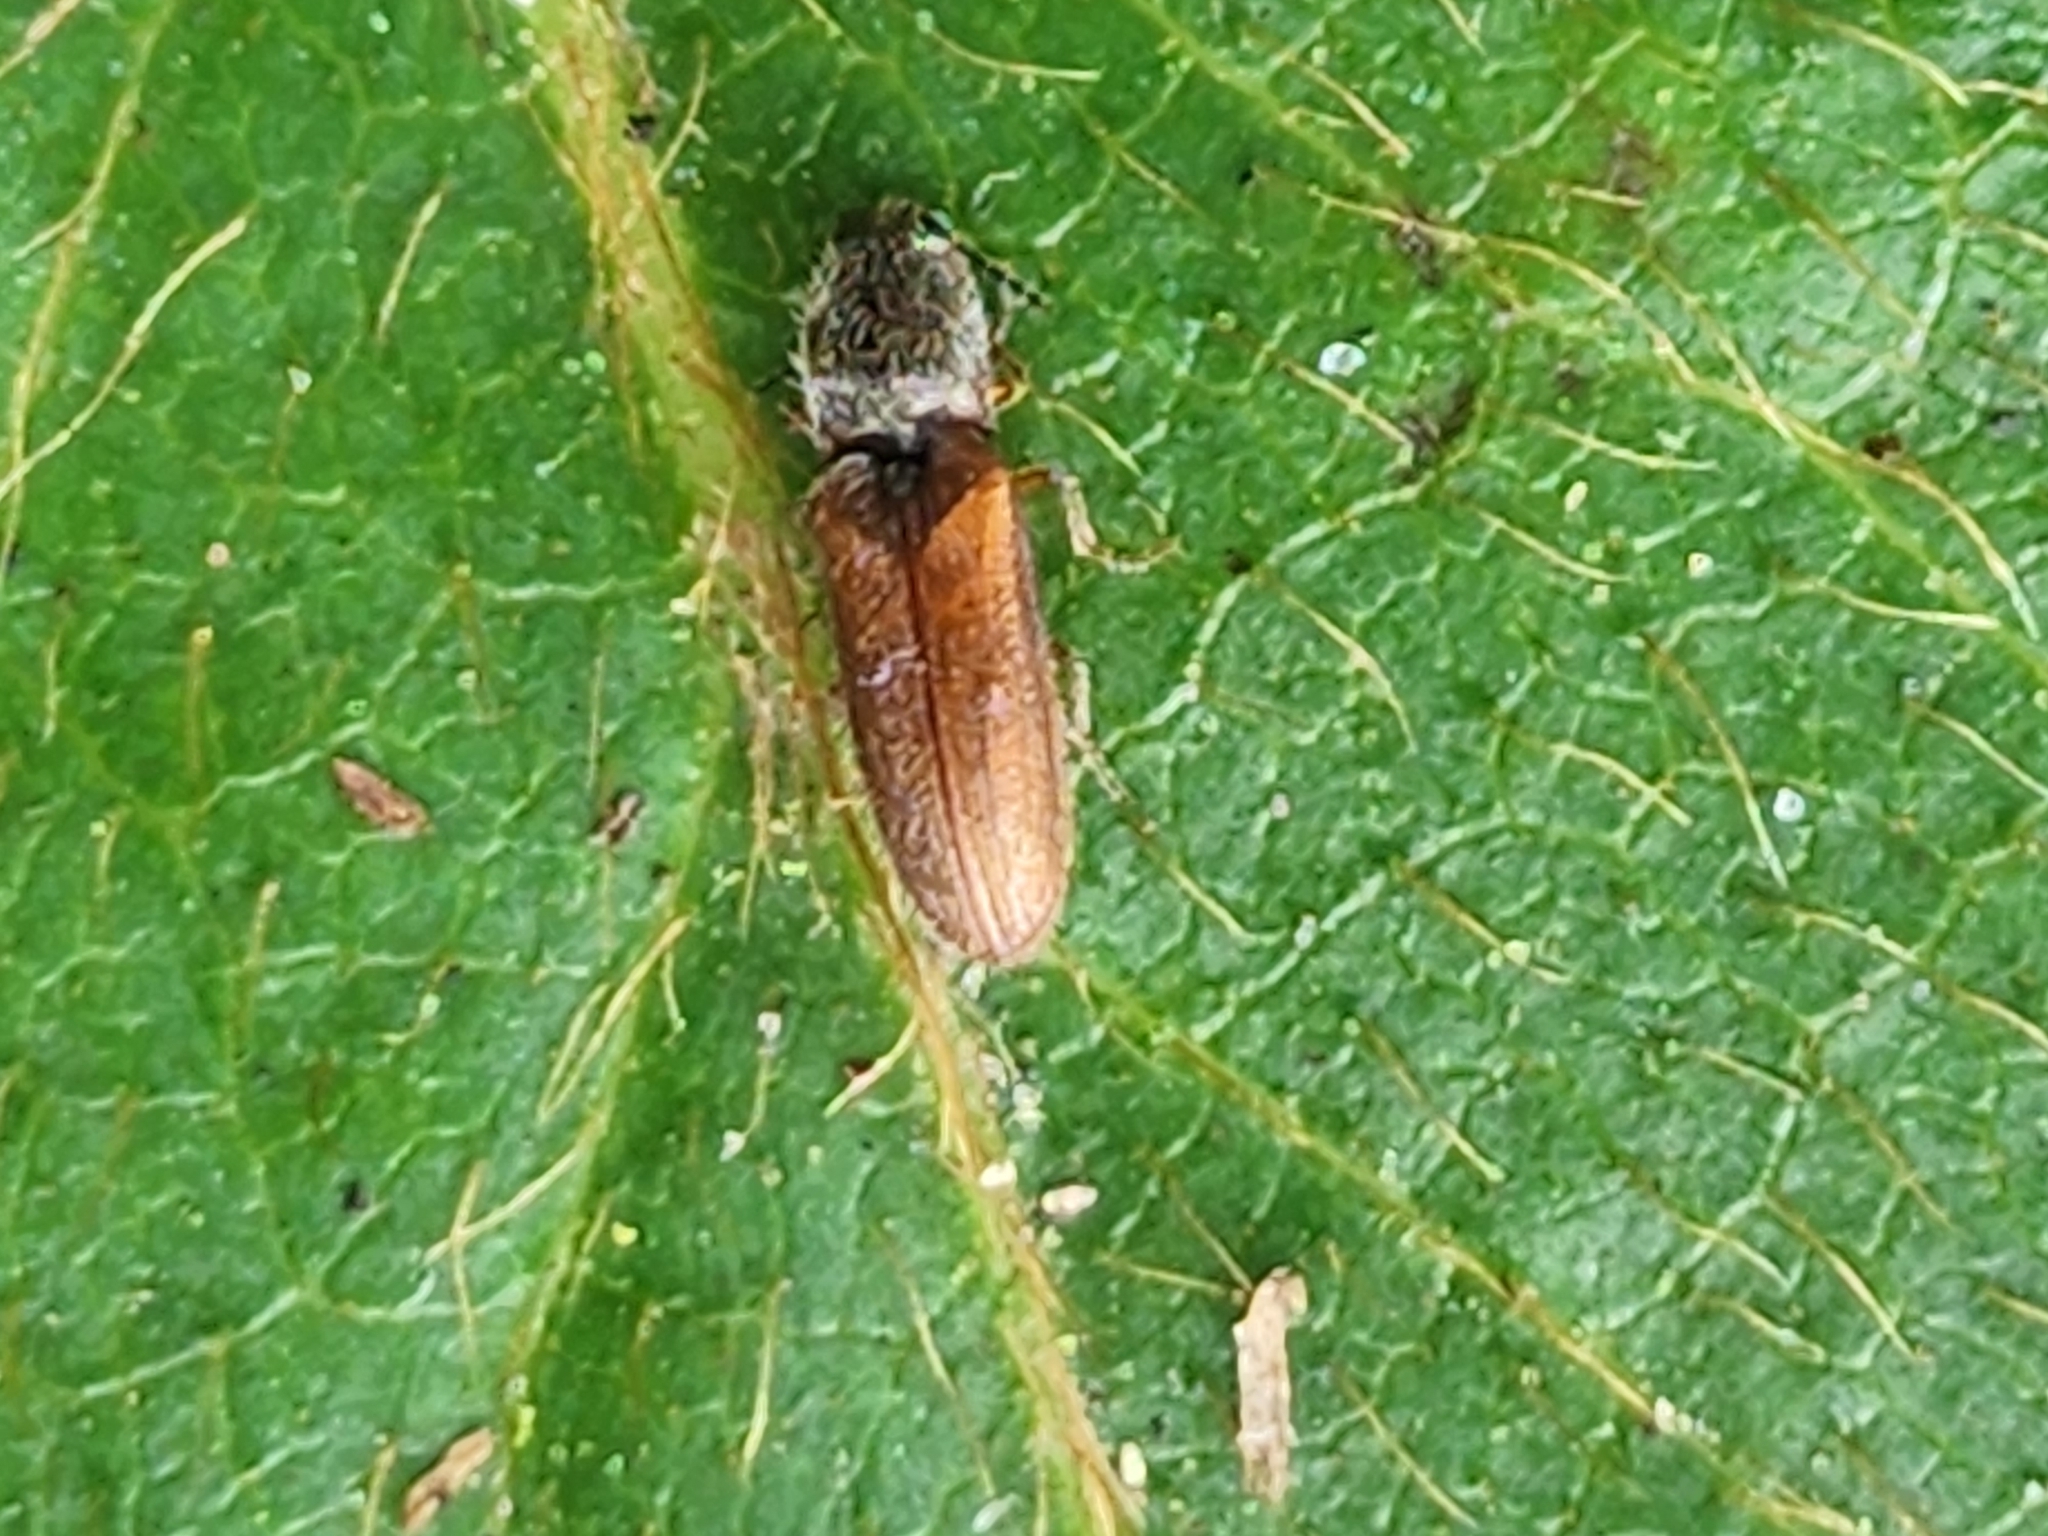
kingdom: Animalia
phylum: Arthropoda
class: Insecta
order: Coleoptera
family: Elateridae
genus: Limonius
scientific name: Limonius
